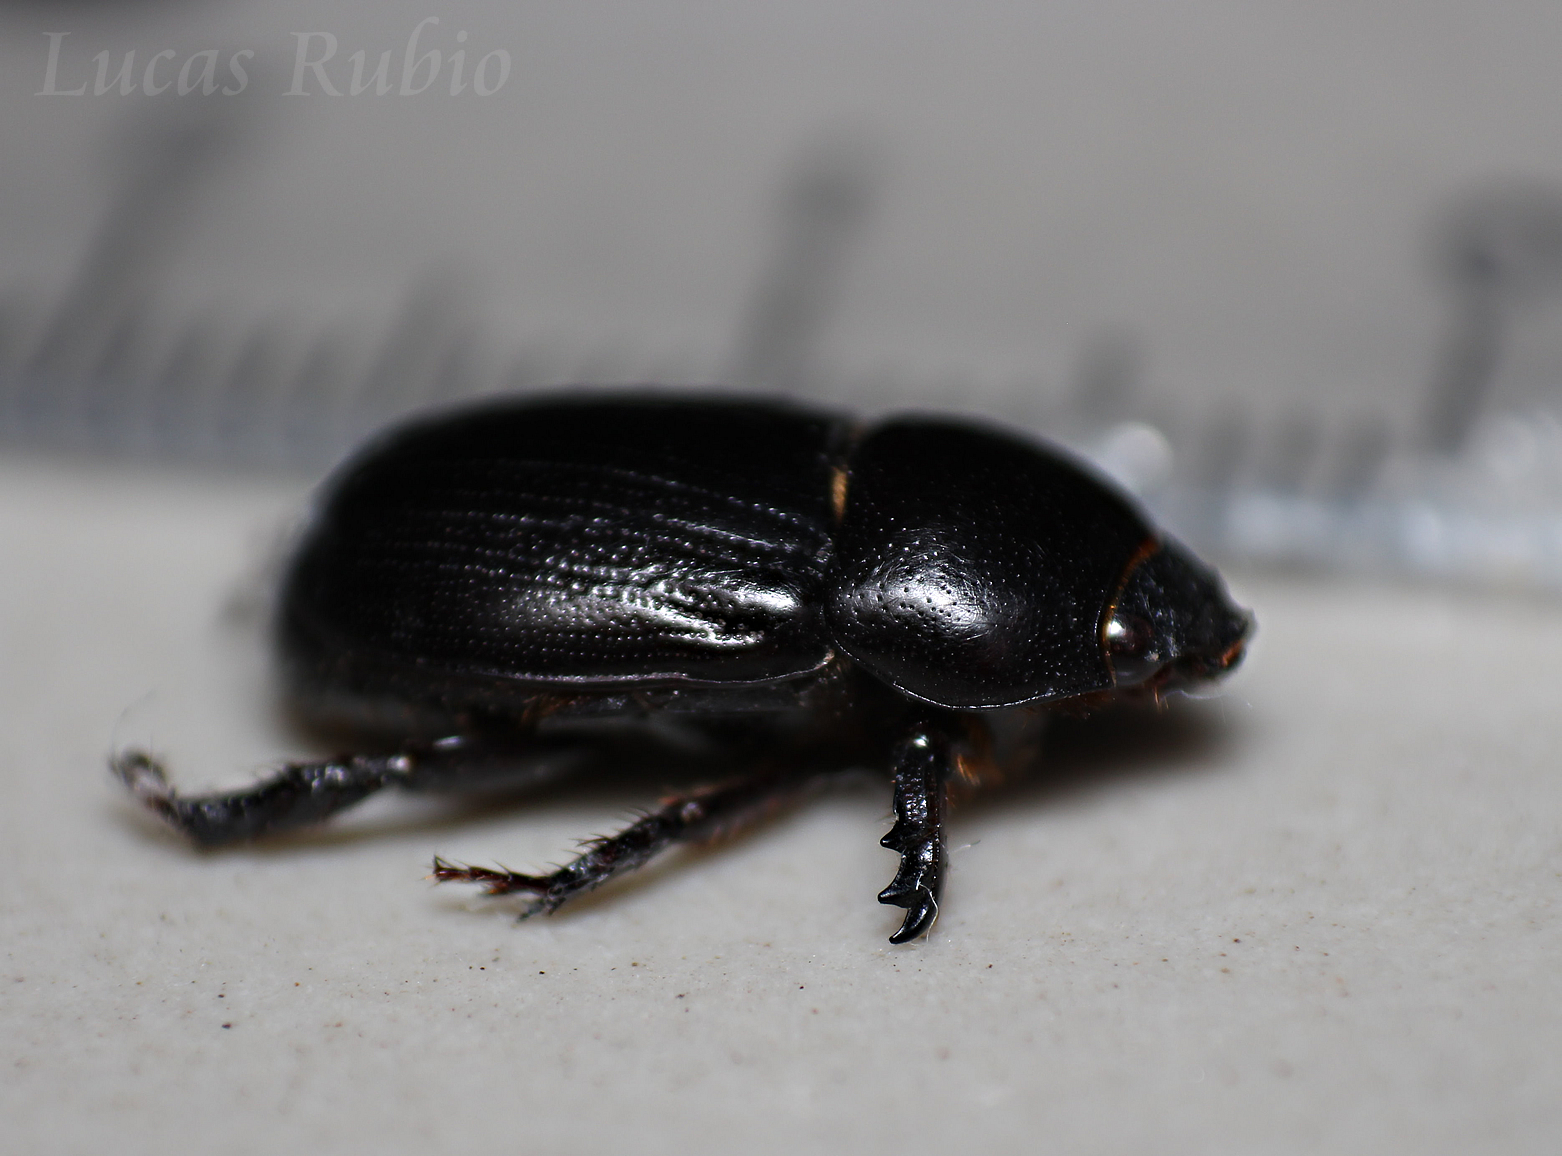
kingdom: Animalia
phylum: Arthropoda
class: Insecta
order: Coleoptera
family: Scarabaeidae
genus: Euetheola
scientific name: Euetheola humilis
